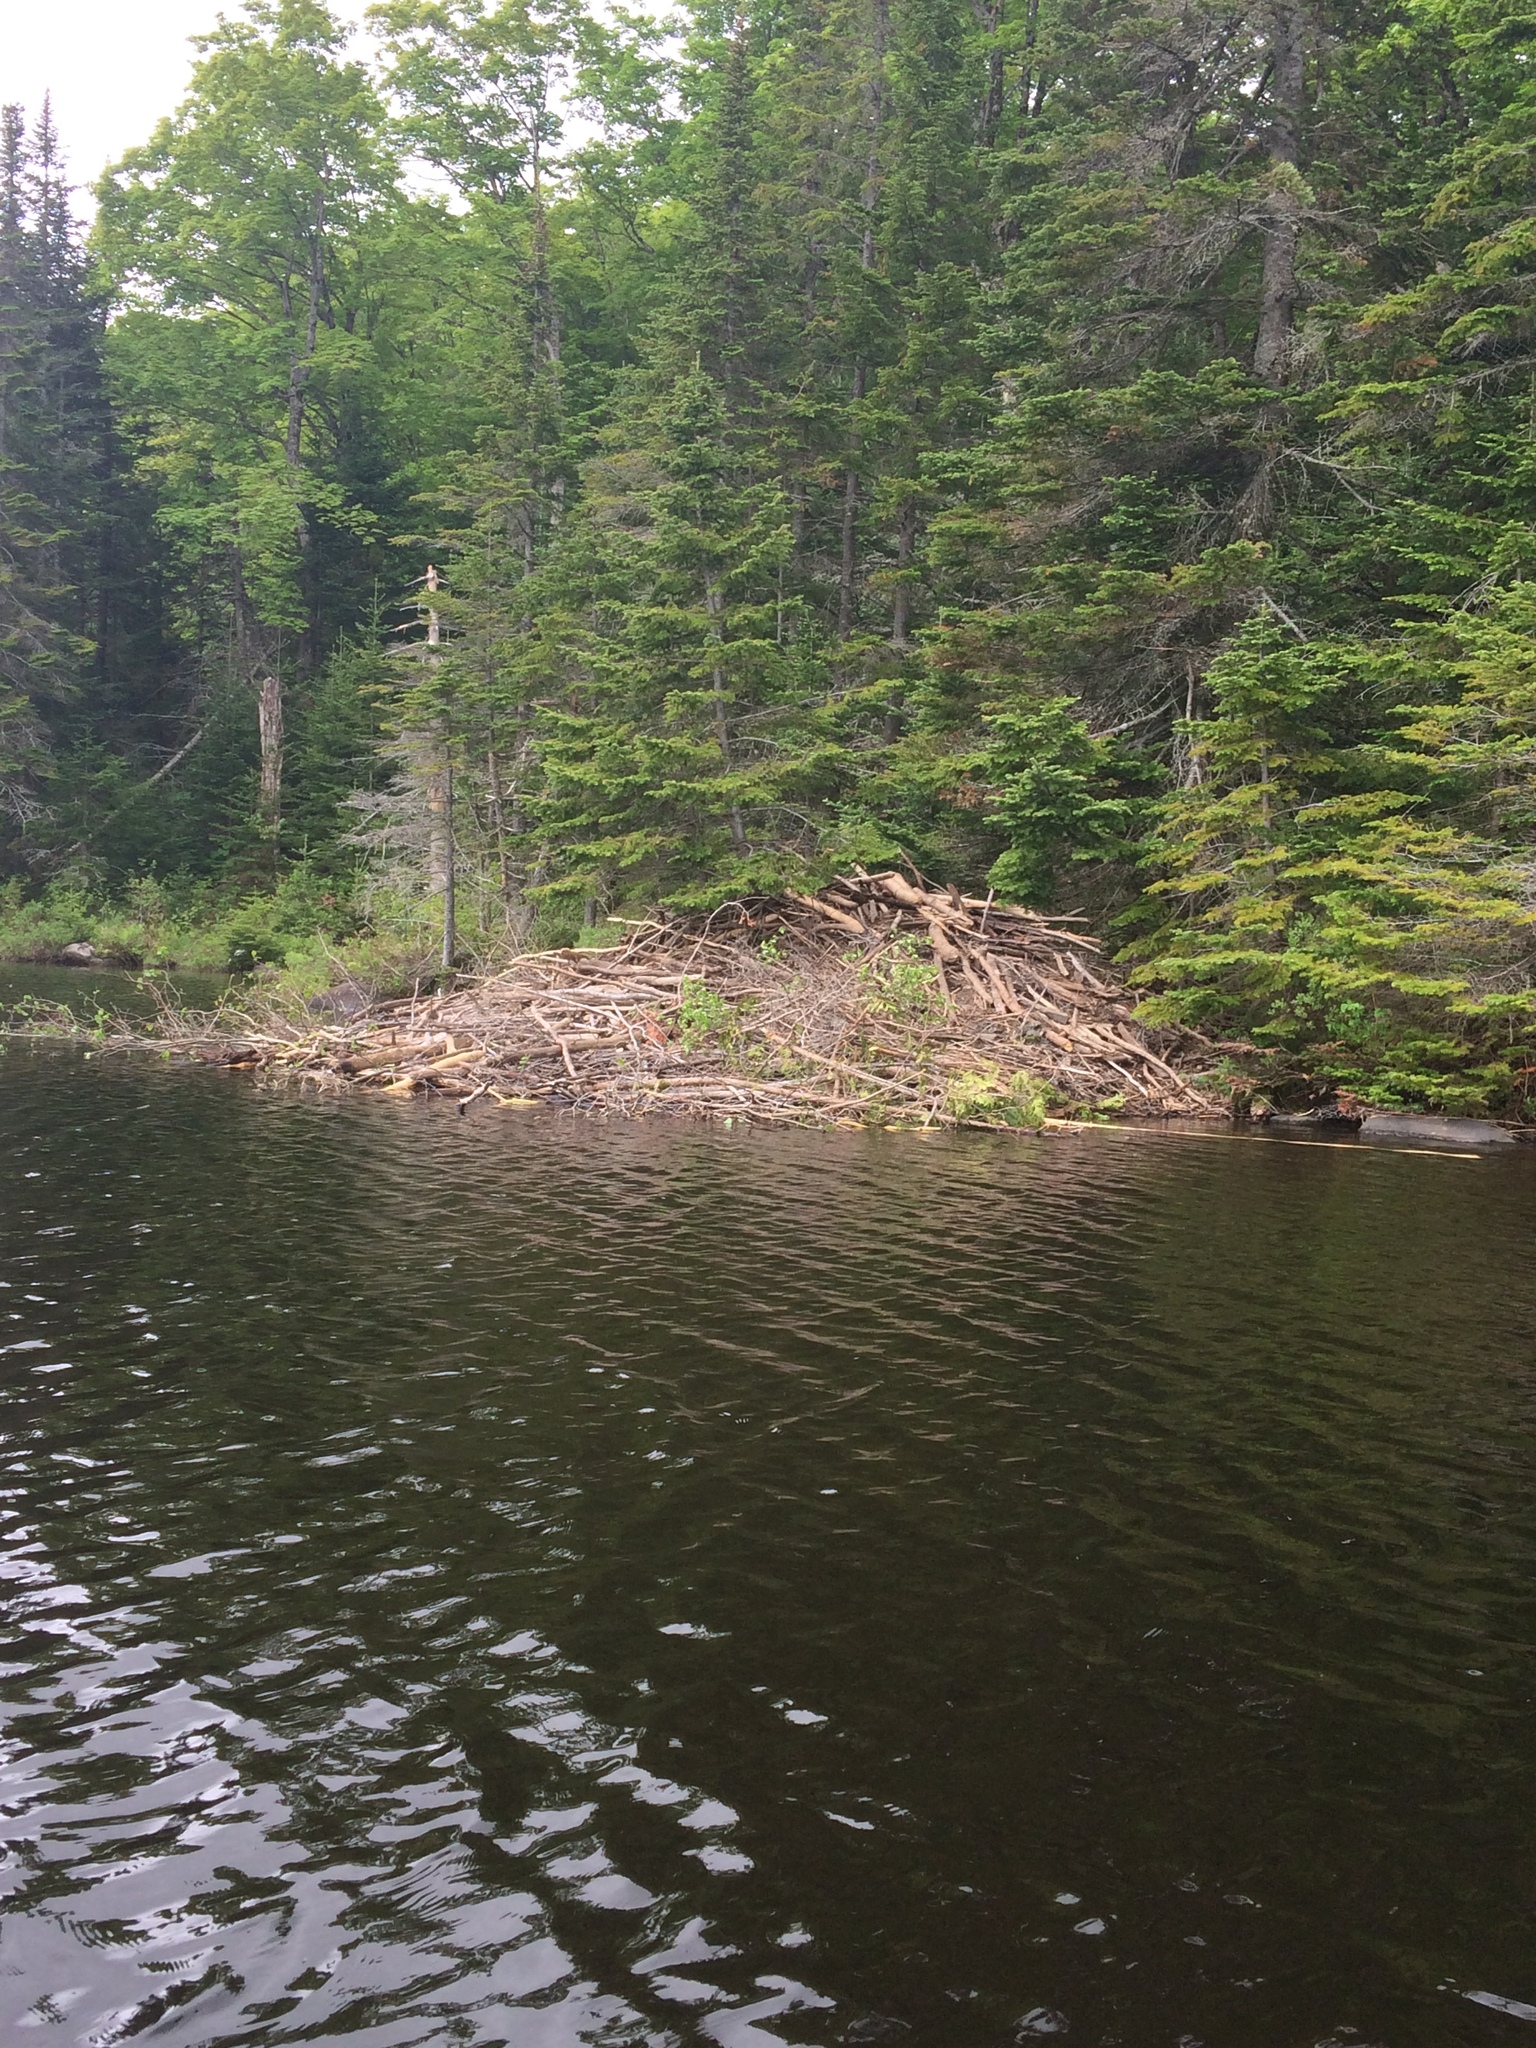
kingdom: Animalia
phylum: Chordata
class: Mammalia
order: Rodentia
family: Castoridae
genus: Castor
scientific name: Castor canadensis
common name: American beaver
